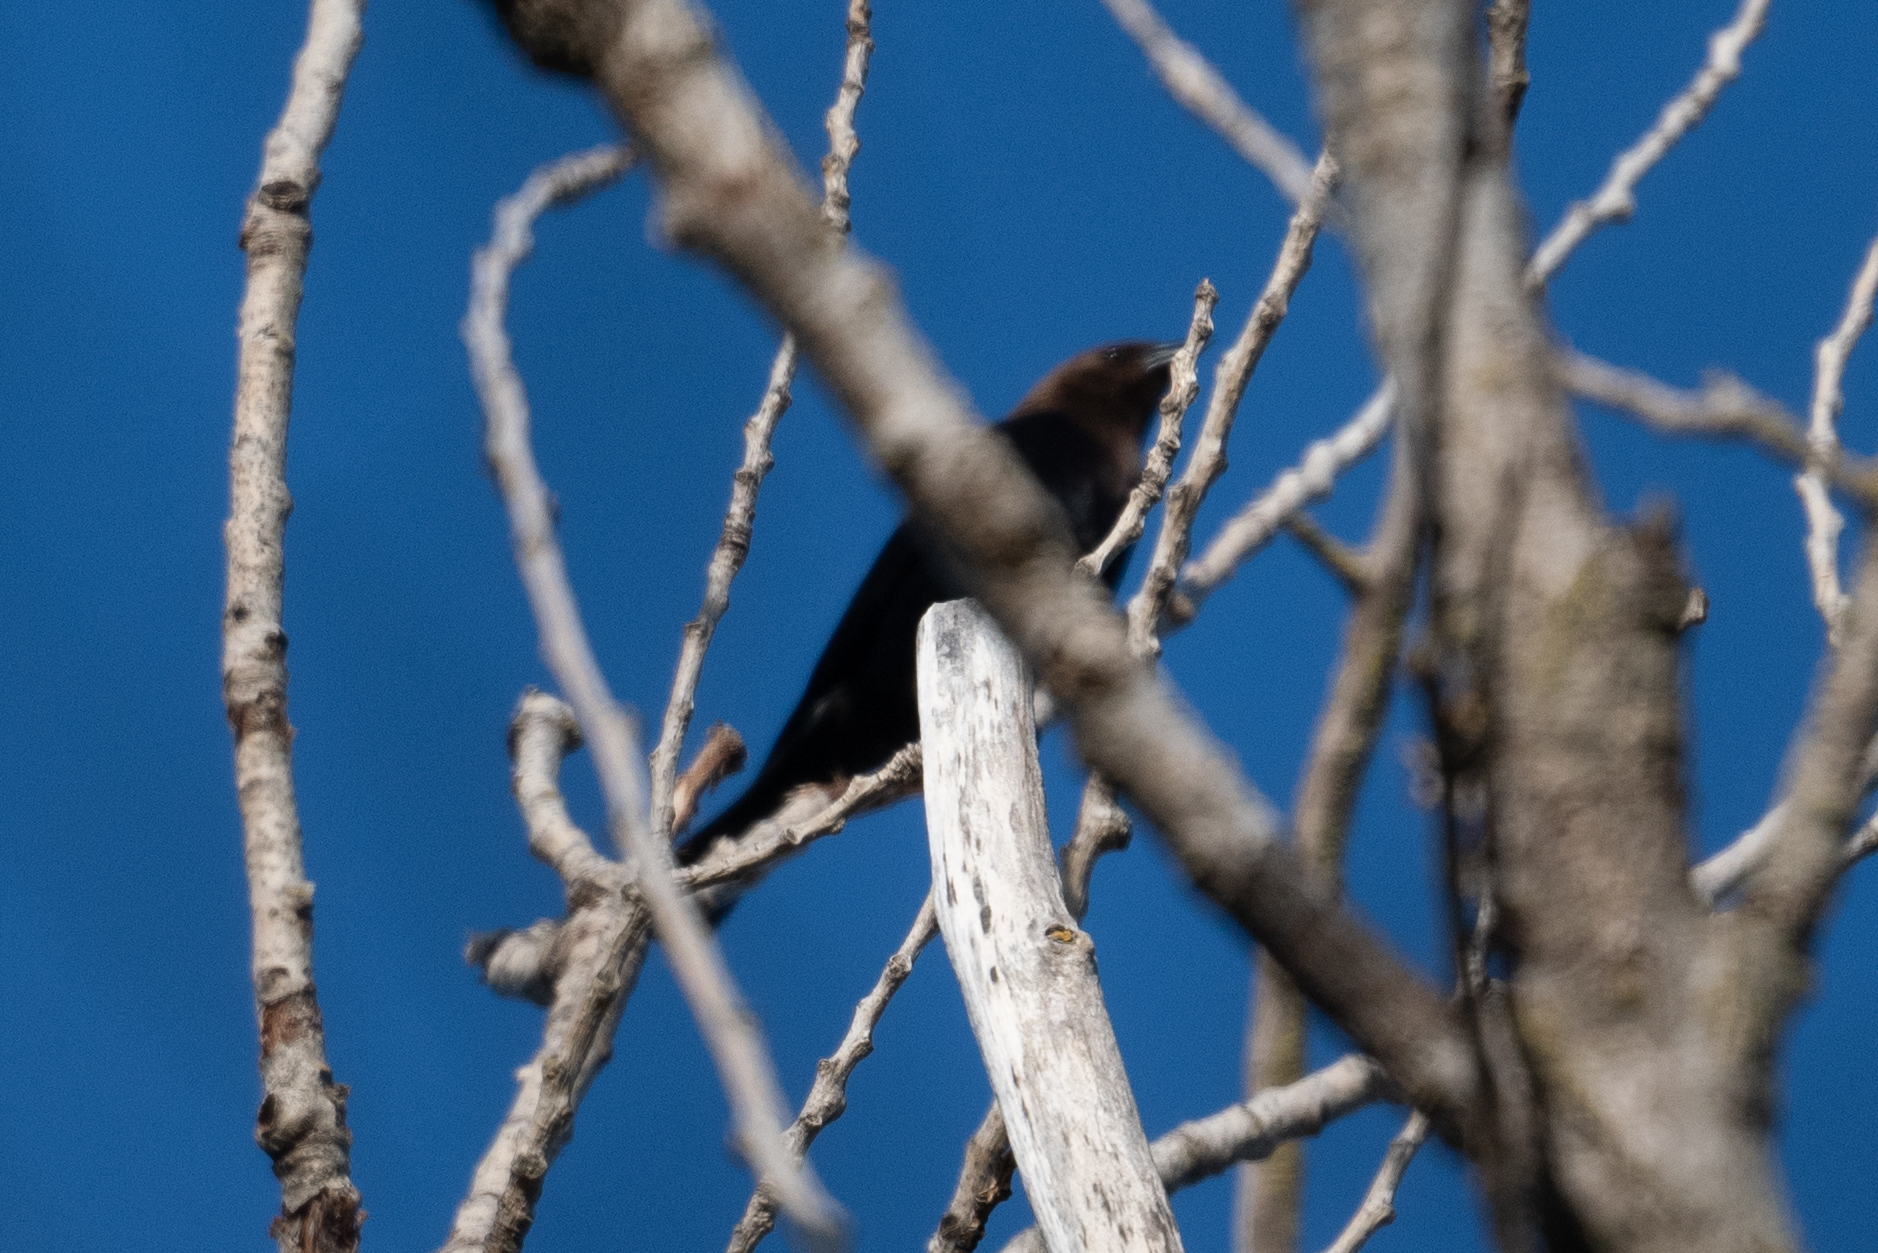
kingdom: Animalia
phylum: Chordata
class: Aves
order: Passeriformes
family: Icteridae
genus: Molothrus
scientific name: Molothrus ater
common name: Brown-headed cowbird
